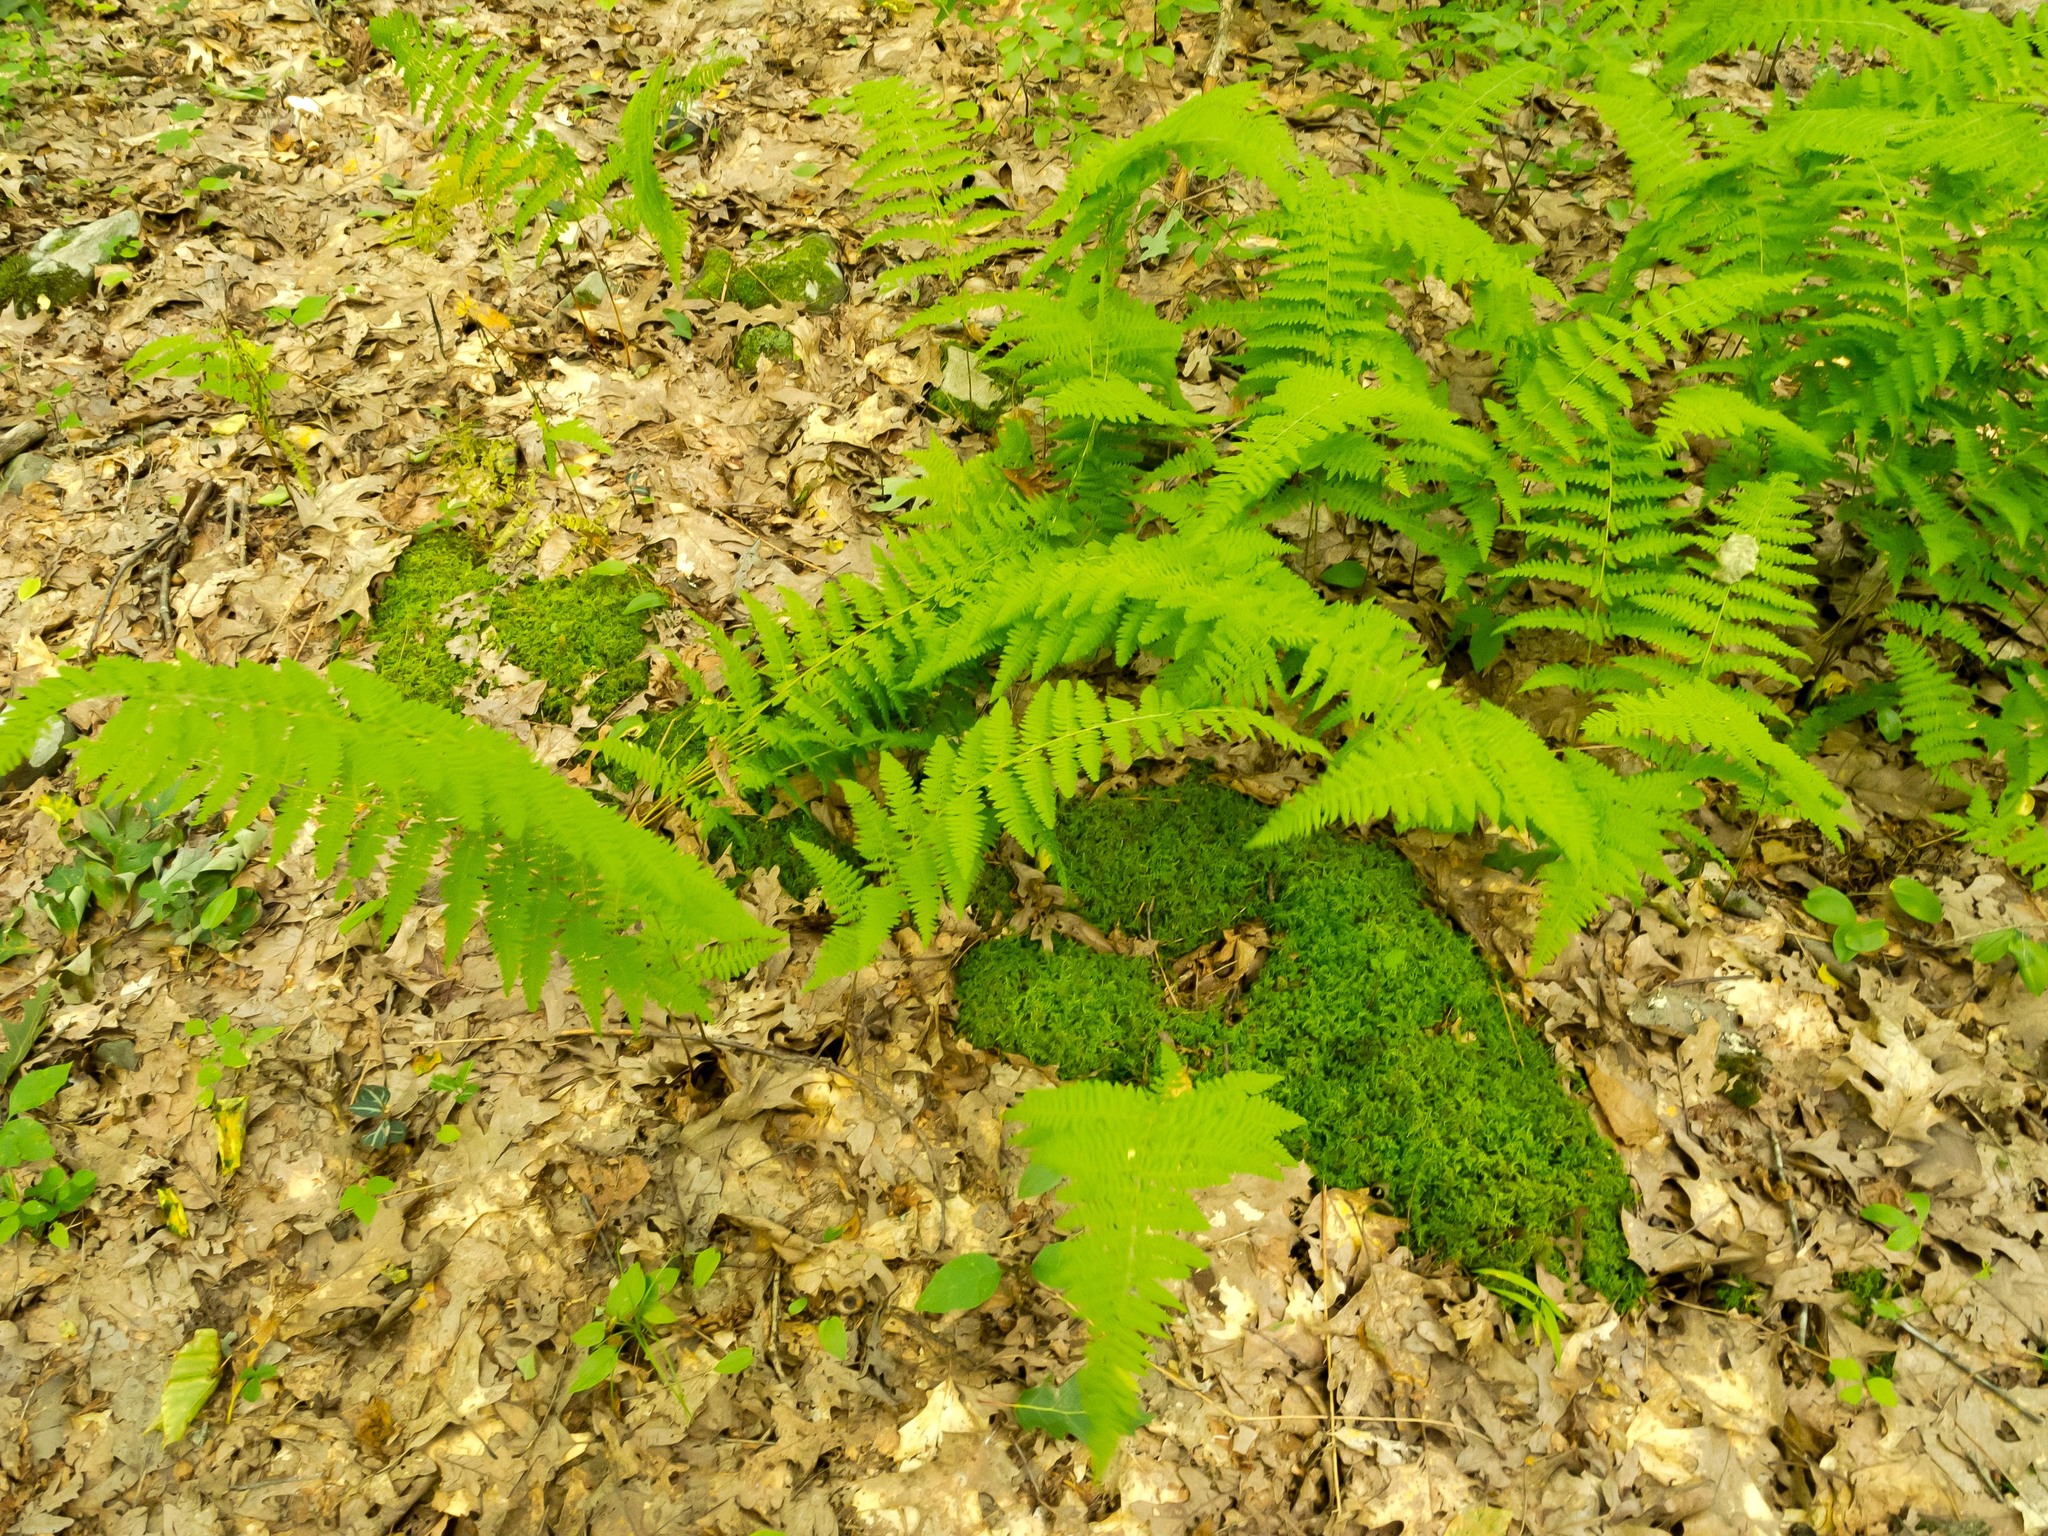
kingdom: Plantae
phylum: Tracheophyta
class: Polypodiopsida
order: Polypodiales
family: Dennstaedtiaceae
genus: Sitobolium
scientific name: Sitobolium punctilobum
